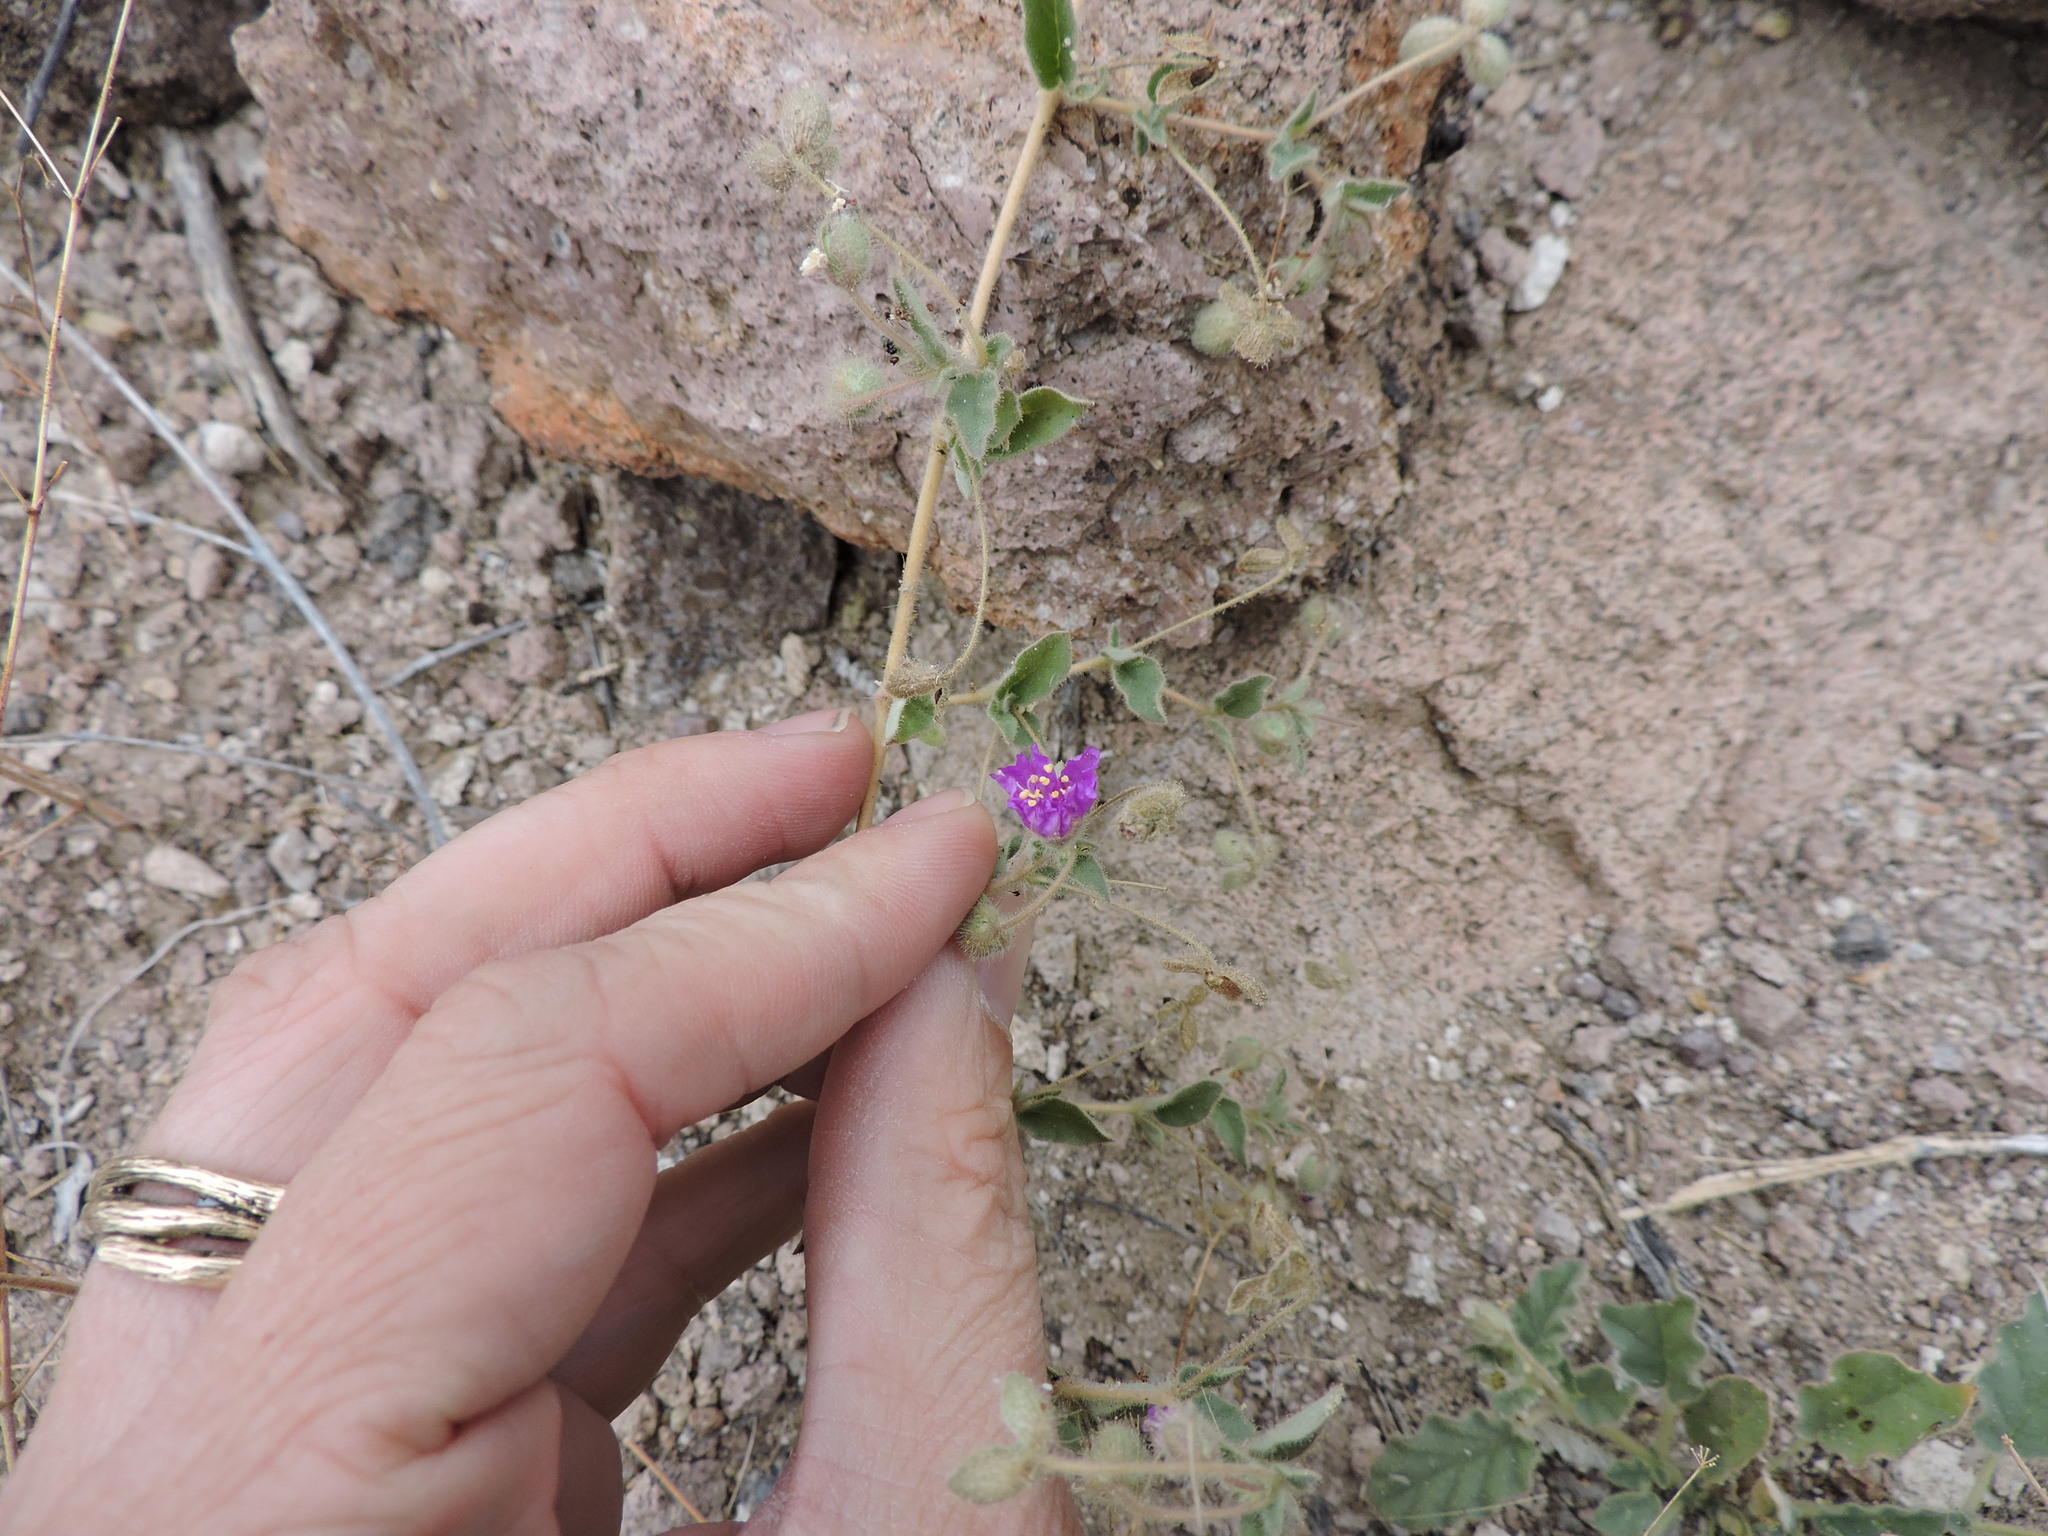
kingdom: Plantae
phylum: Tracheophyta
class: Magnoliopsida
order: Caryophyllales
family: Nyctaginaceae
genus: Allionia
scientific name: Allionia incarnata
